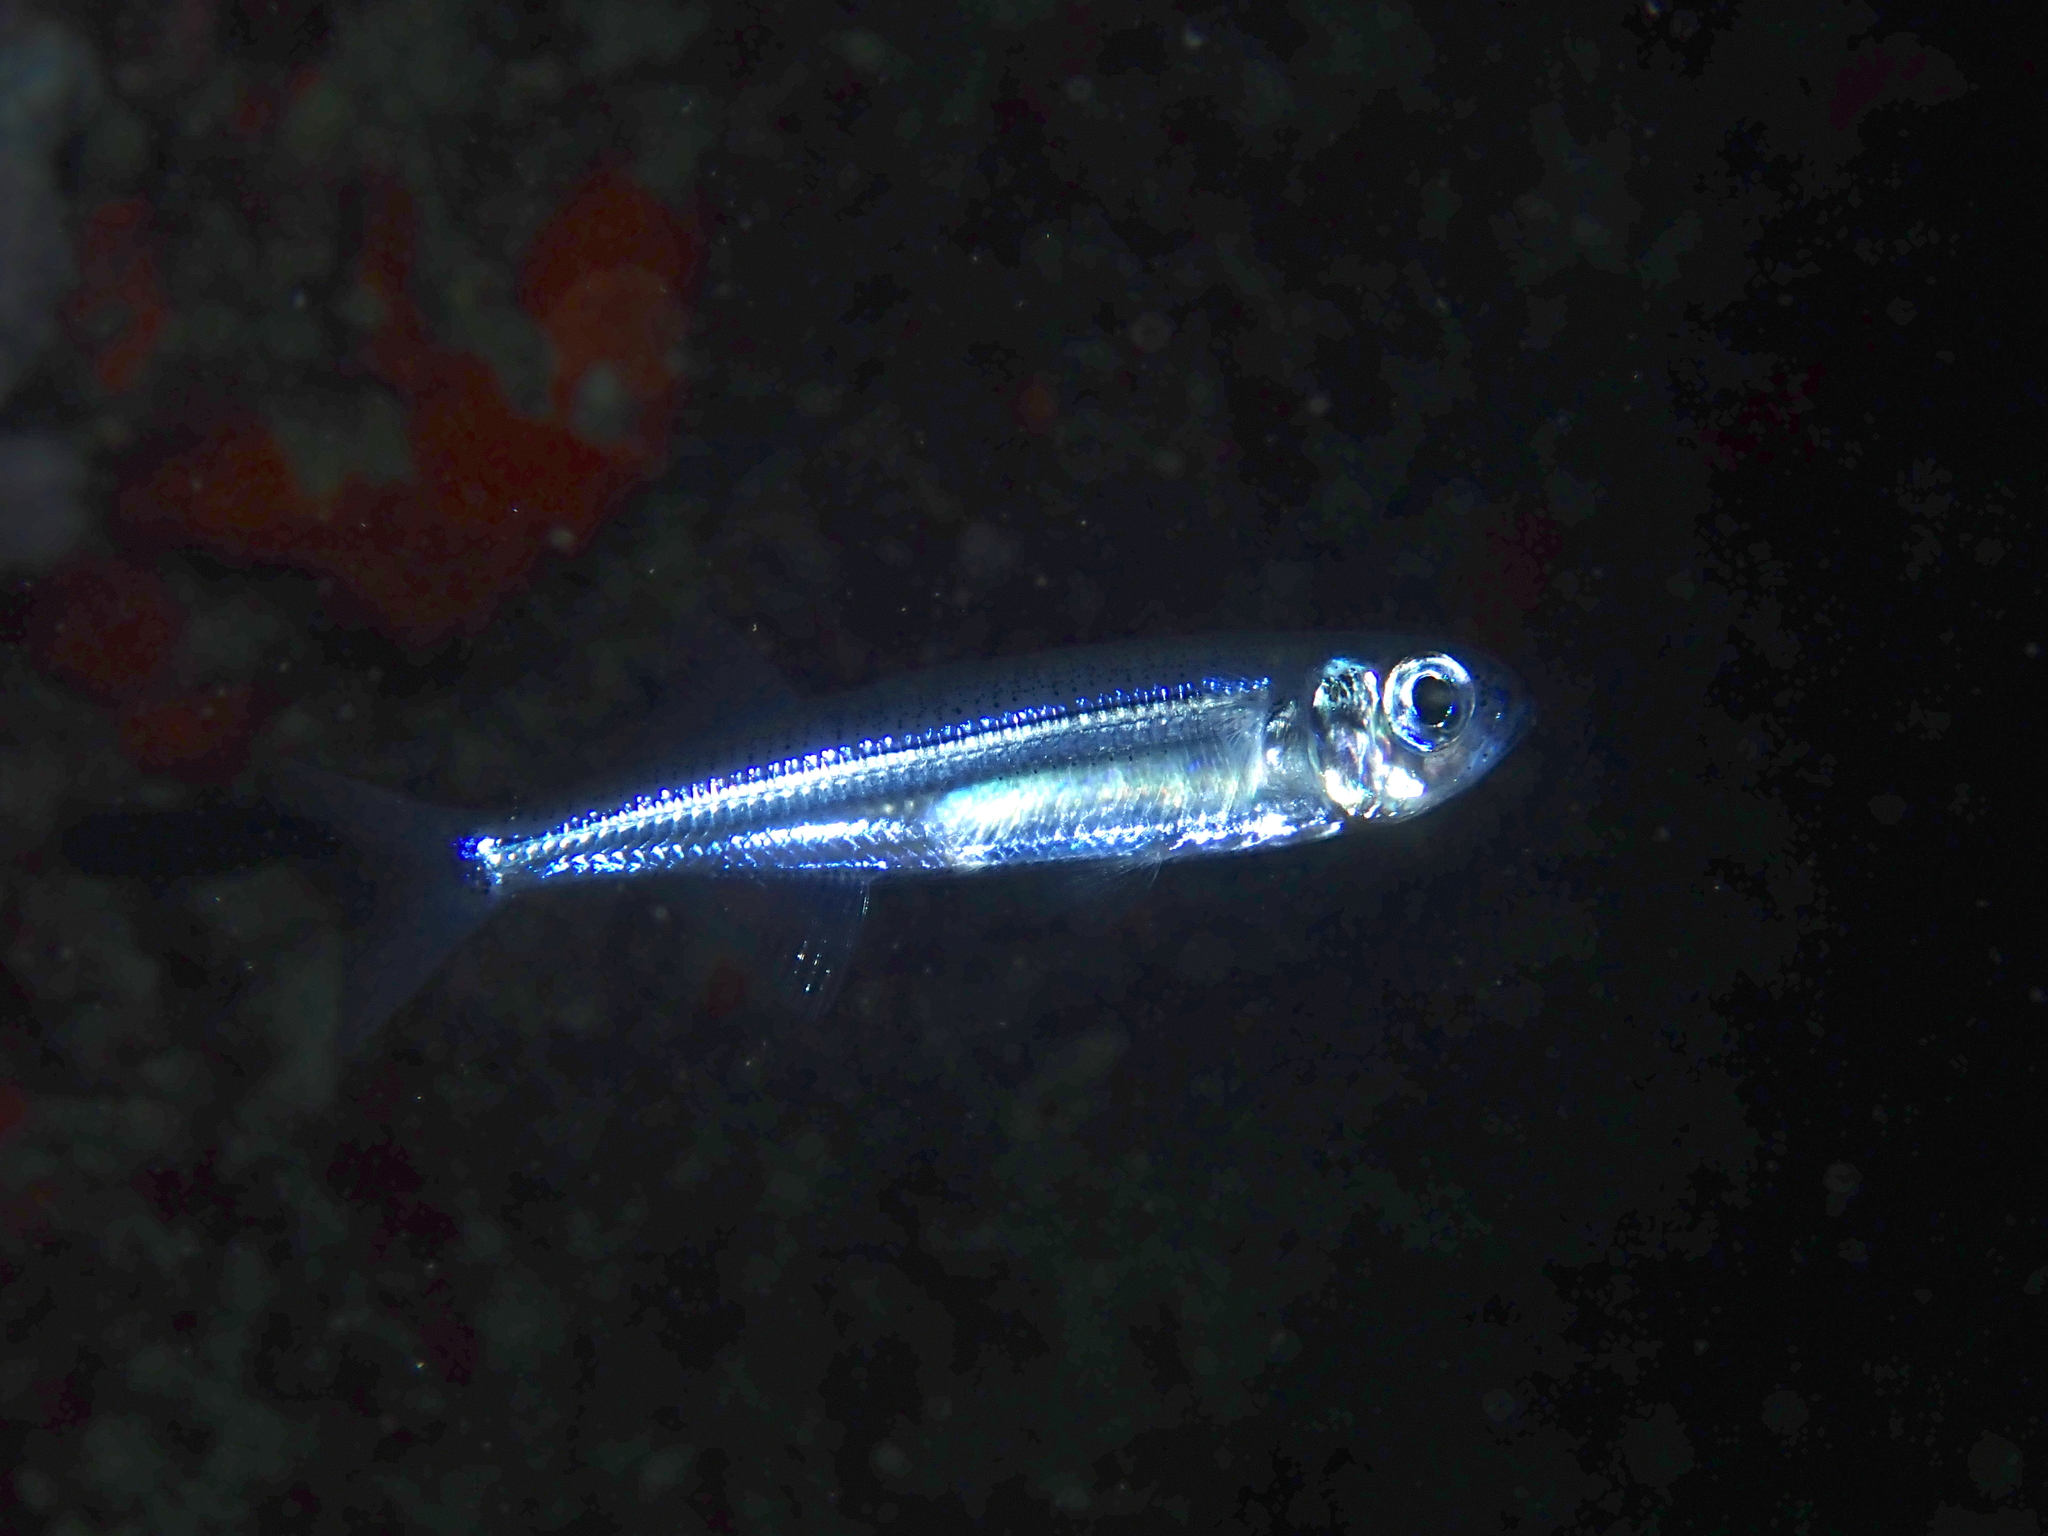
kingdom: Animalia
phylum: Chordata
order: Atheriniformes
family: Atherinidae
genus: Atherina
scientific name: Atherina boyeri
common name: Big-scale sand smelt
